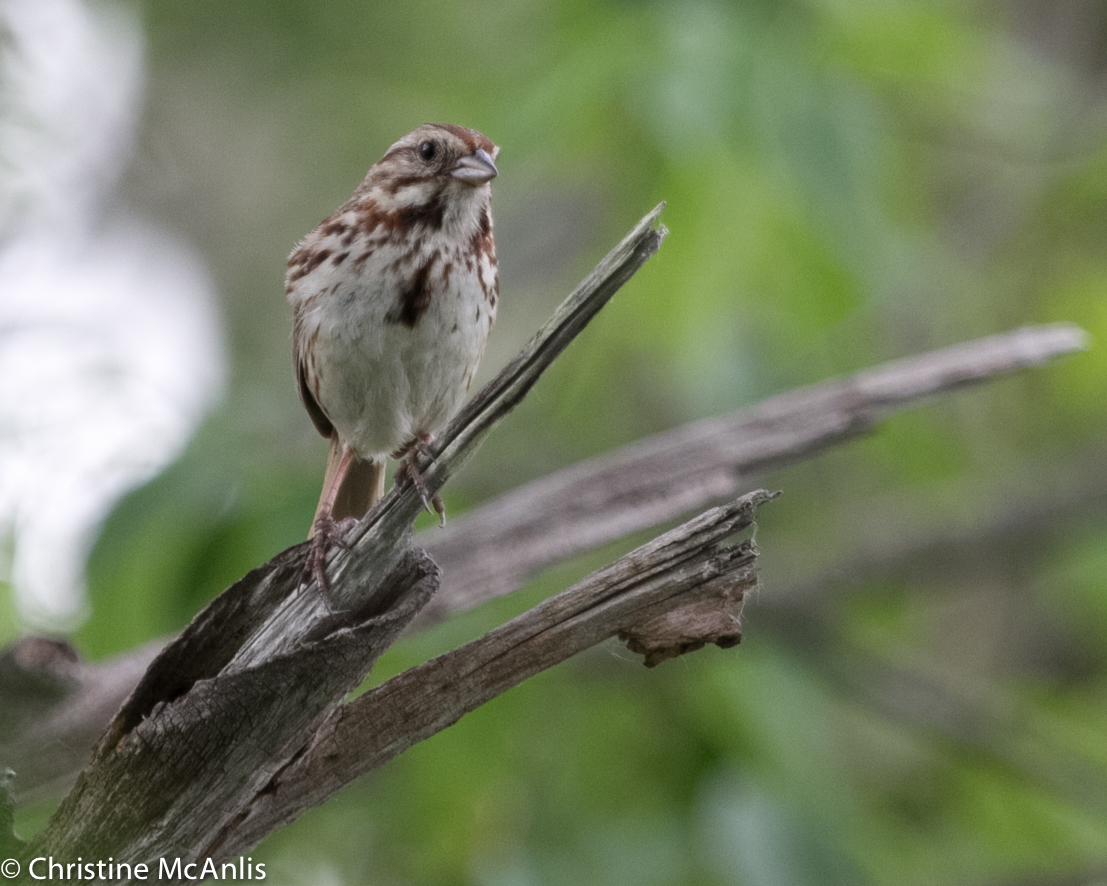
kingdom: Animalia
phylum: Chordata
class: Aves
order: Passeriformes
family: Passerellidae
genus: Melospiza
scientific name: Melospiza melodia
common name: Song sparrow
